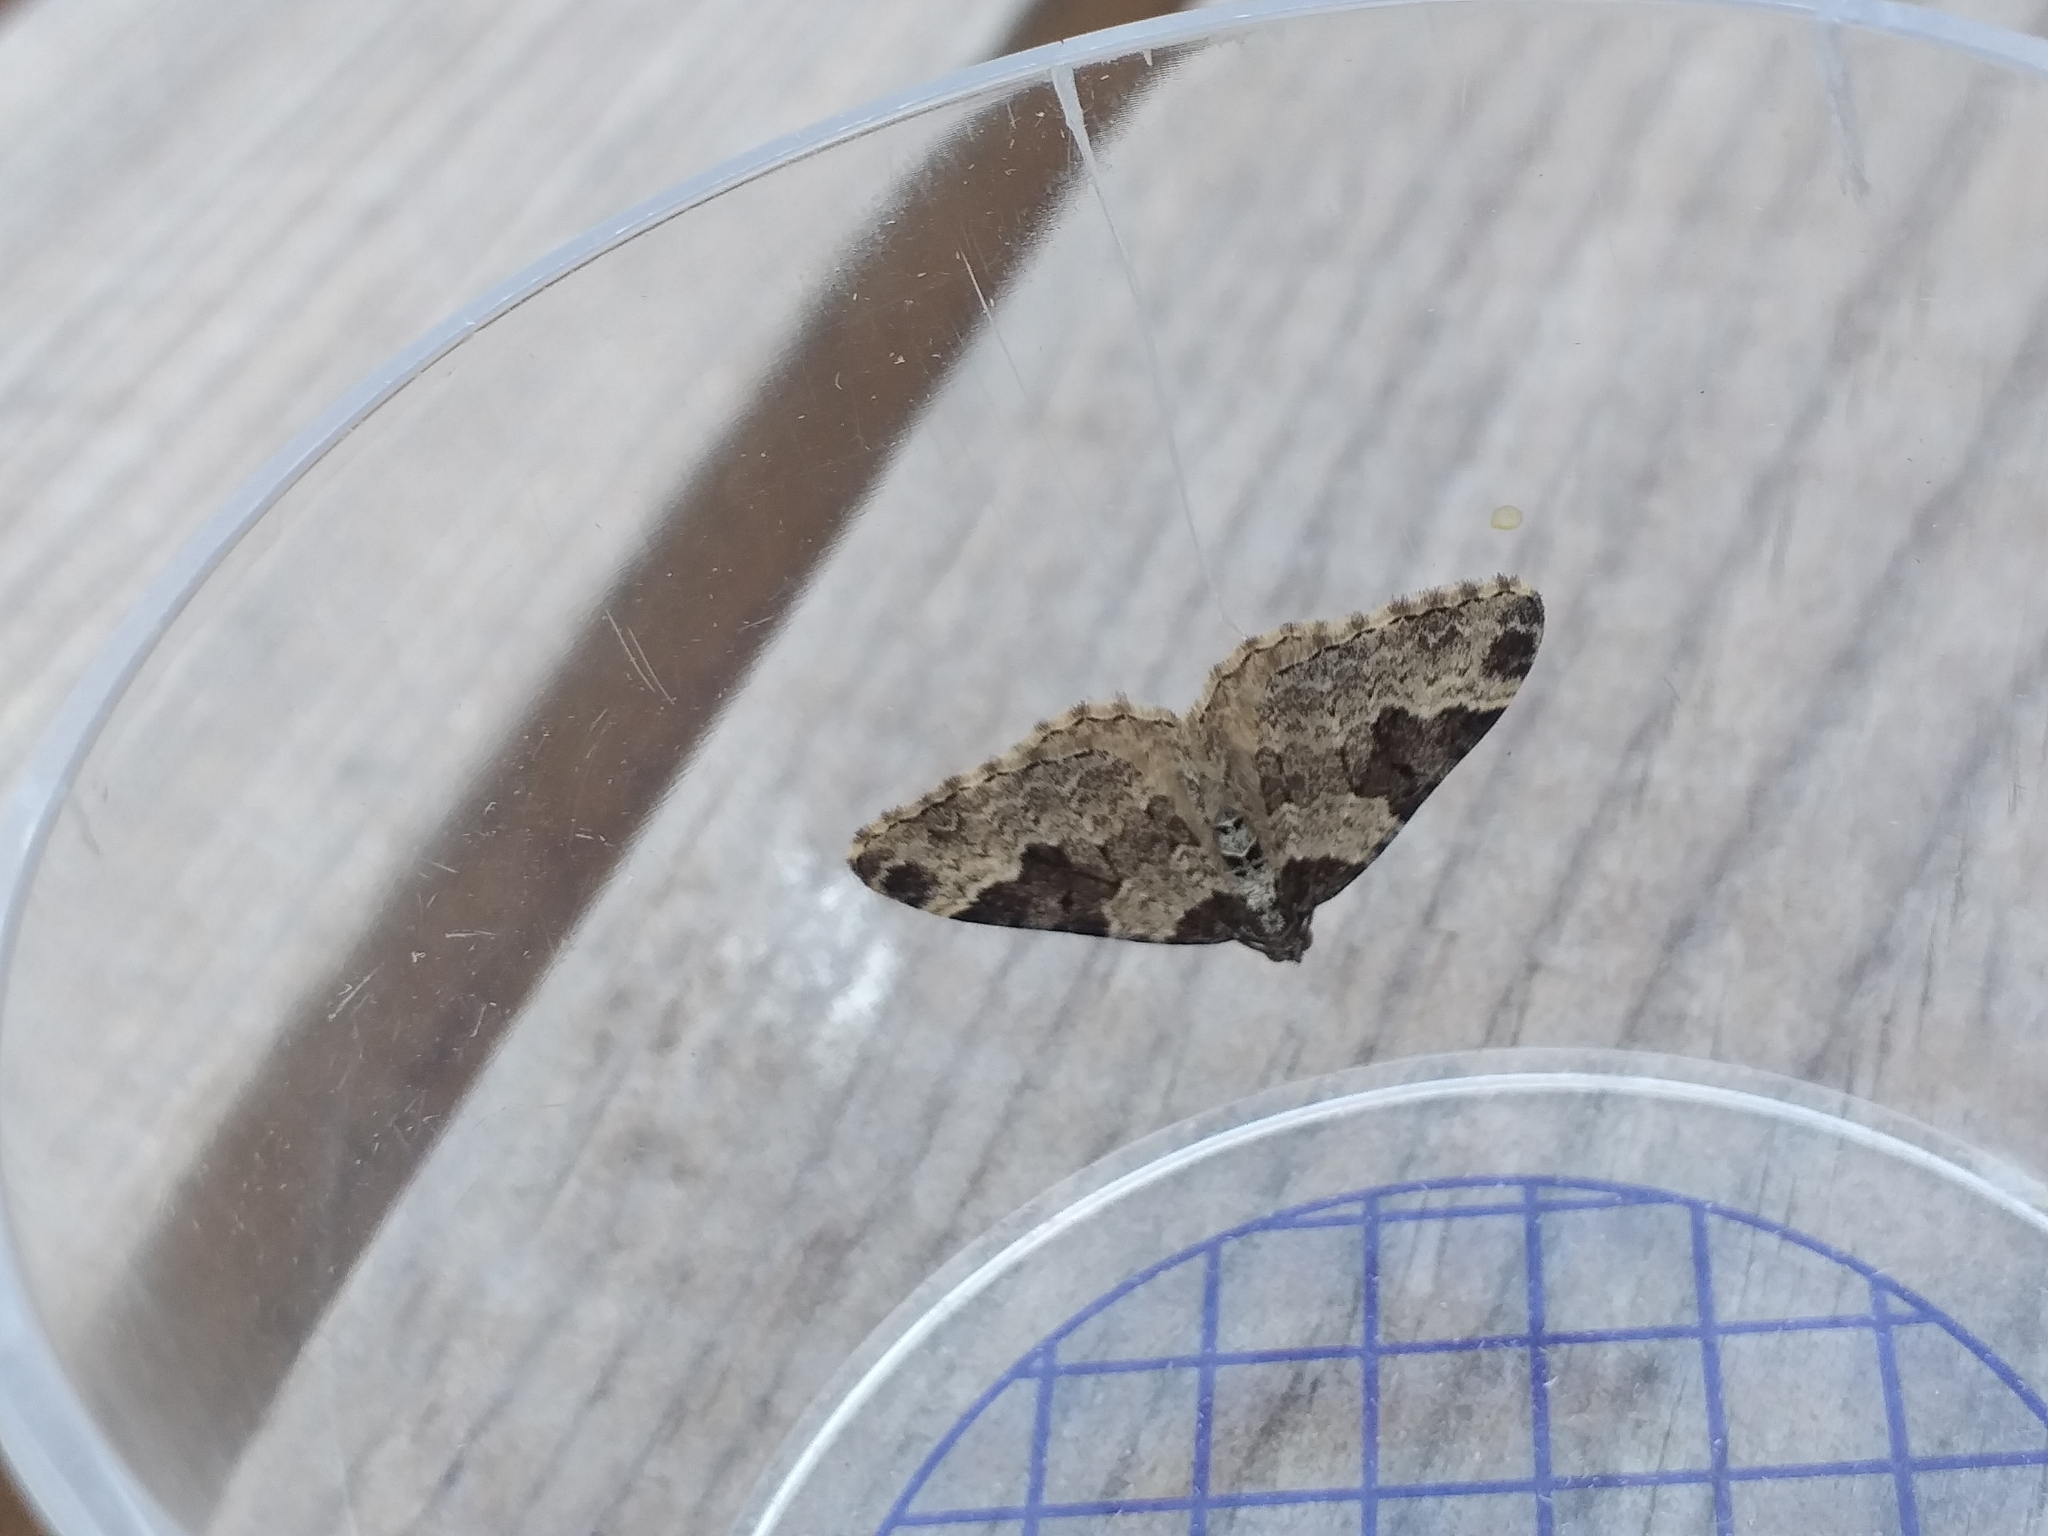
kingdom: Animalia
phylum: Arthropoda
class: Insecta
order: Lepidoptera
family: Geometridae
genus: Xanthorhoe
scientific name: Xanthorhoe fluctuata
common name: Garden carpet
